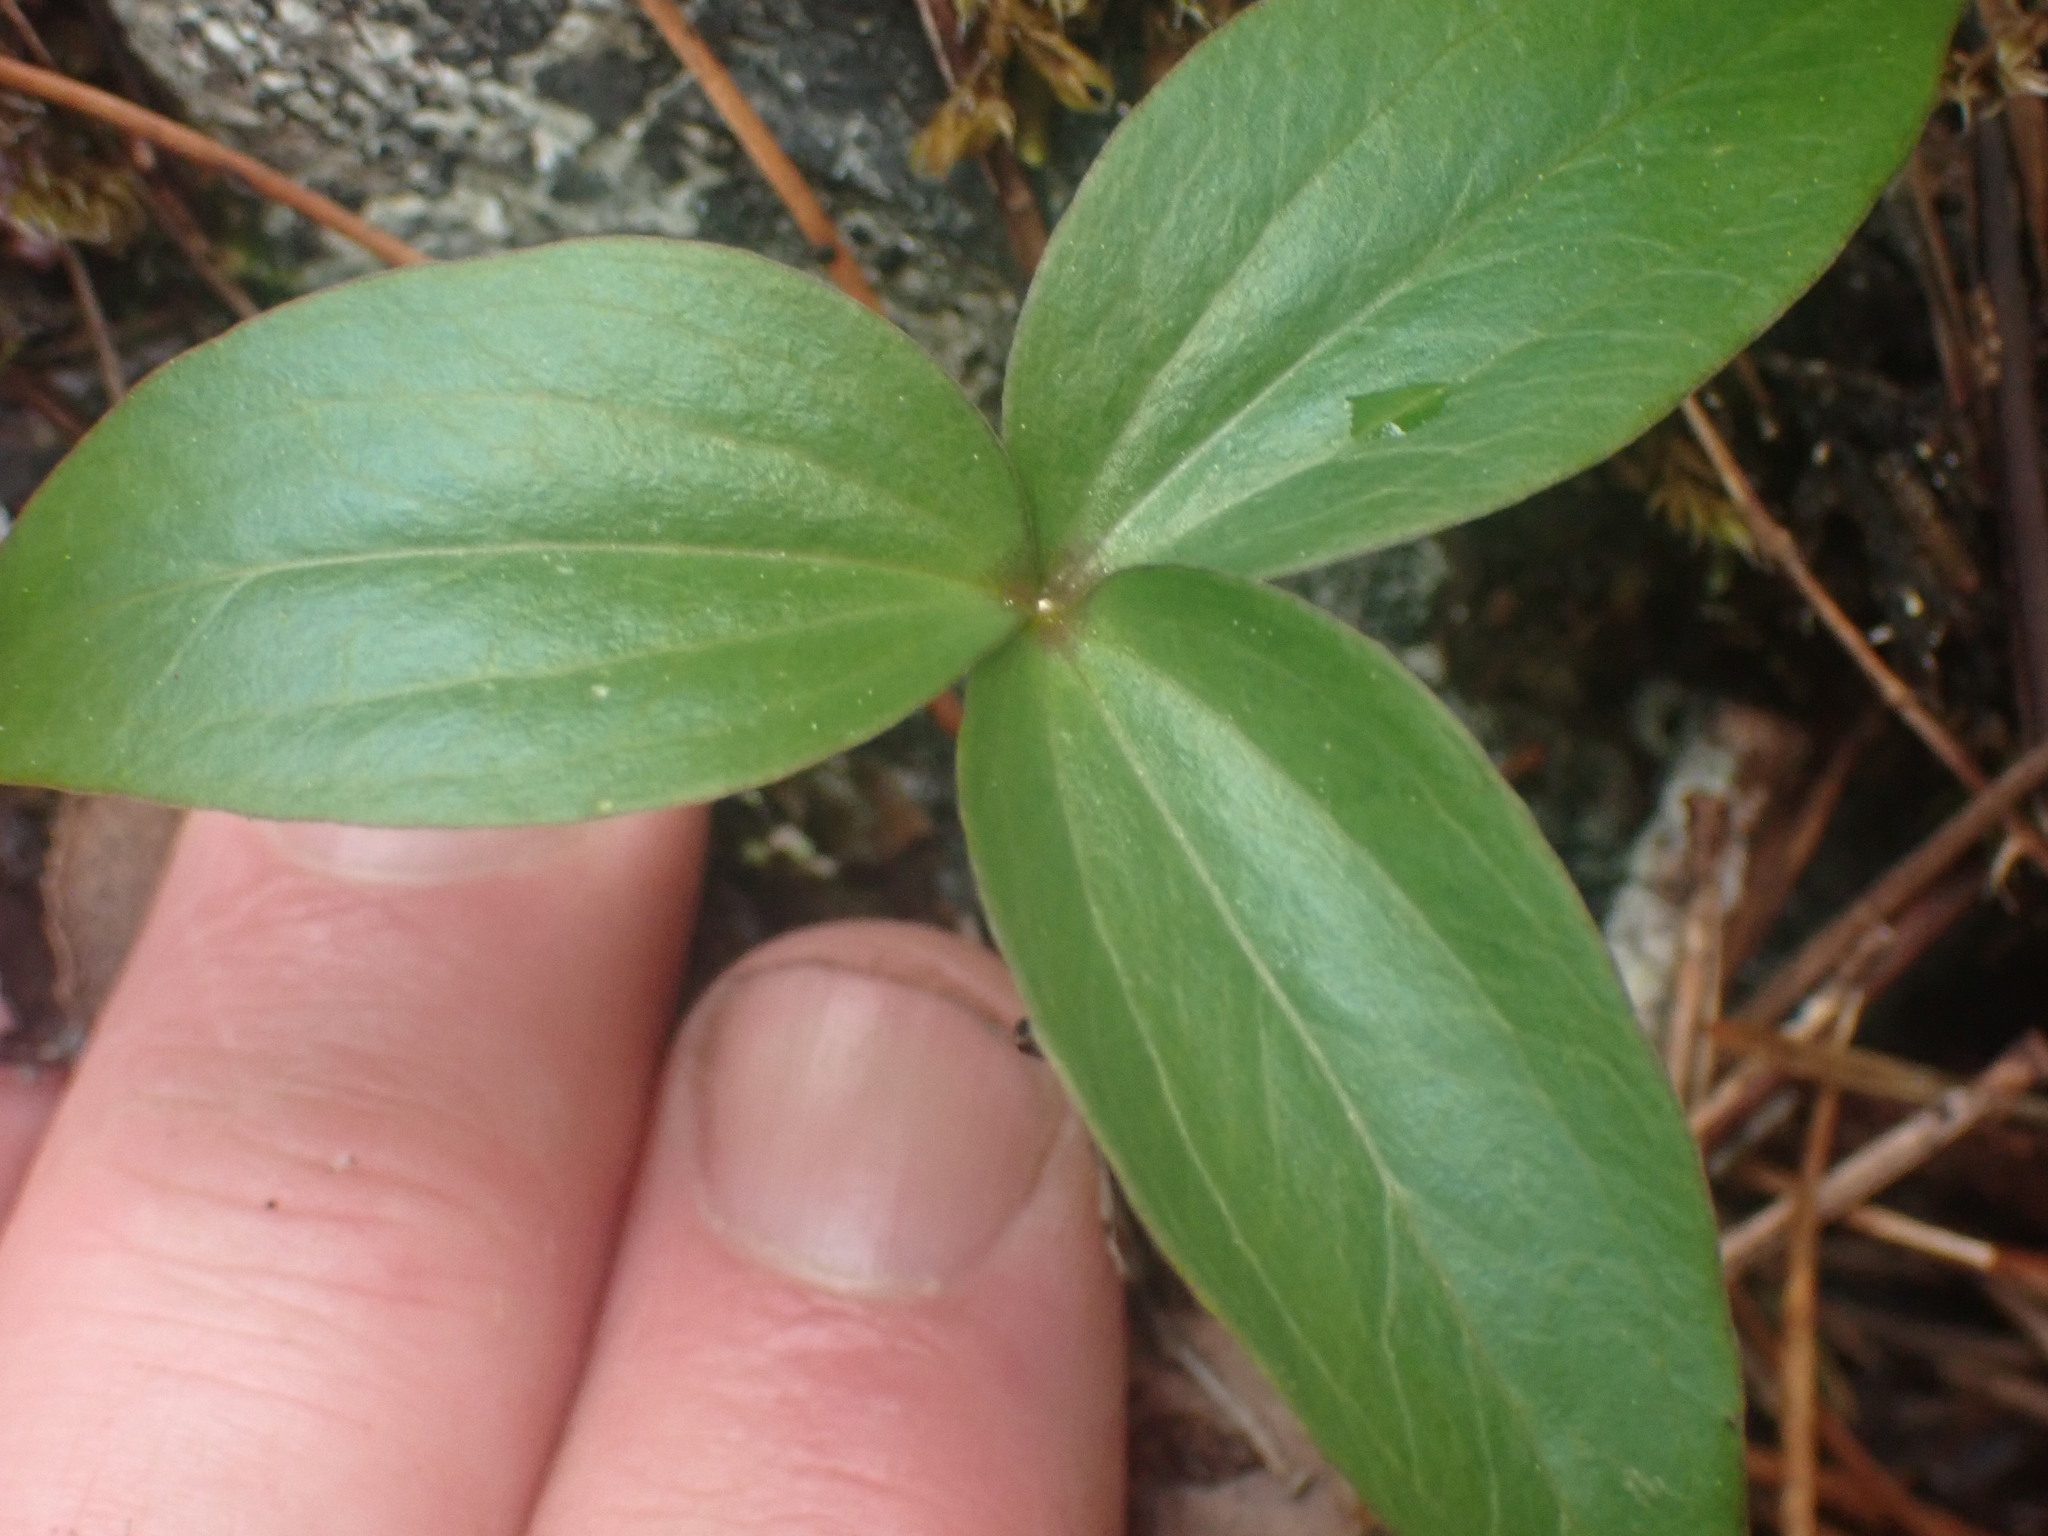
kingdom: Plantae
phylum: Tracheophyta
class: Liliopsida
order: Liliales
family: Melanthiaceae
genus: Trillium
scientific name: Trillium hibbersonii
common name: Hibberson's trillium
